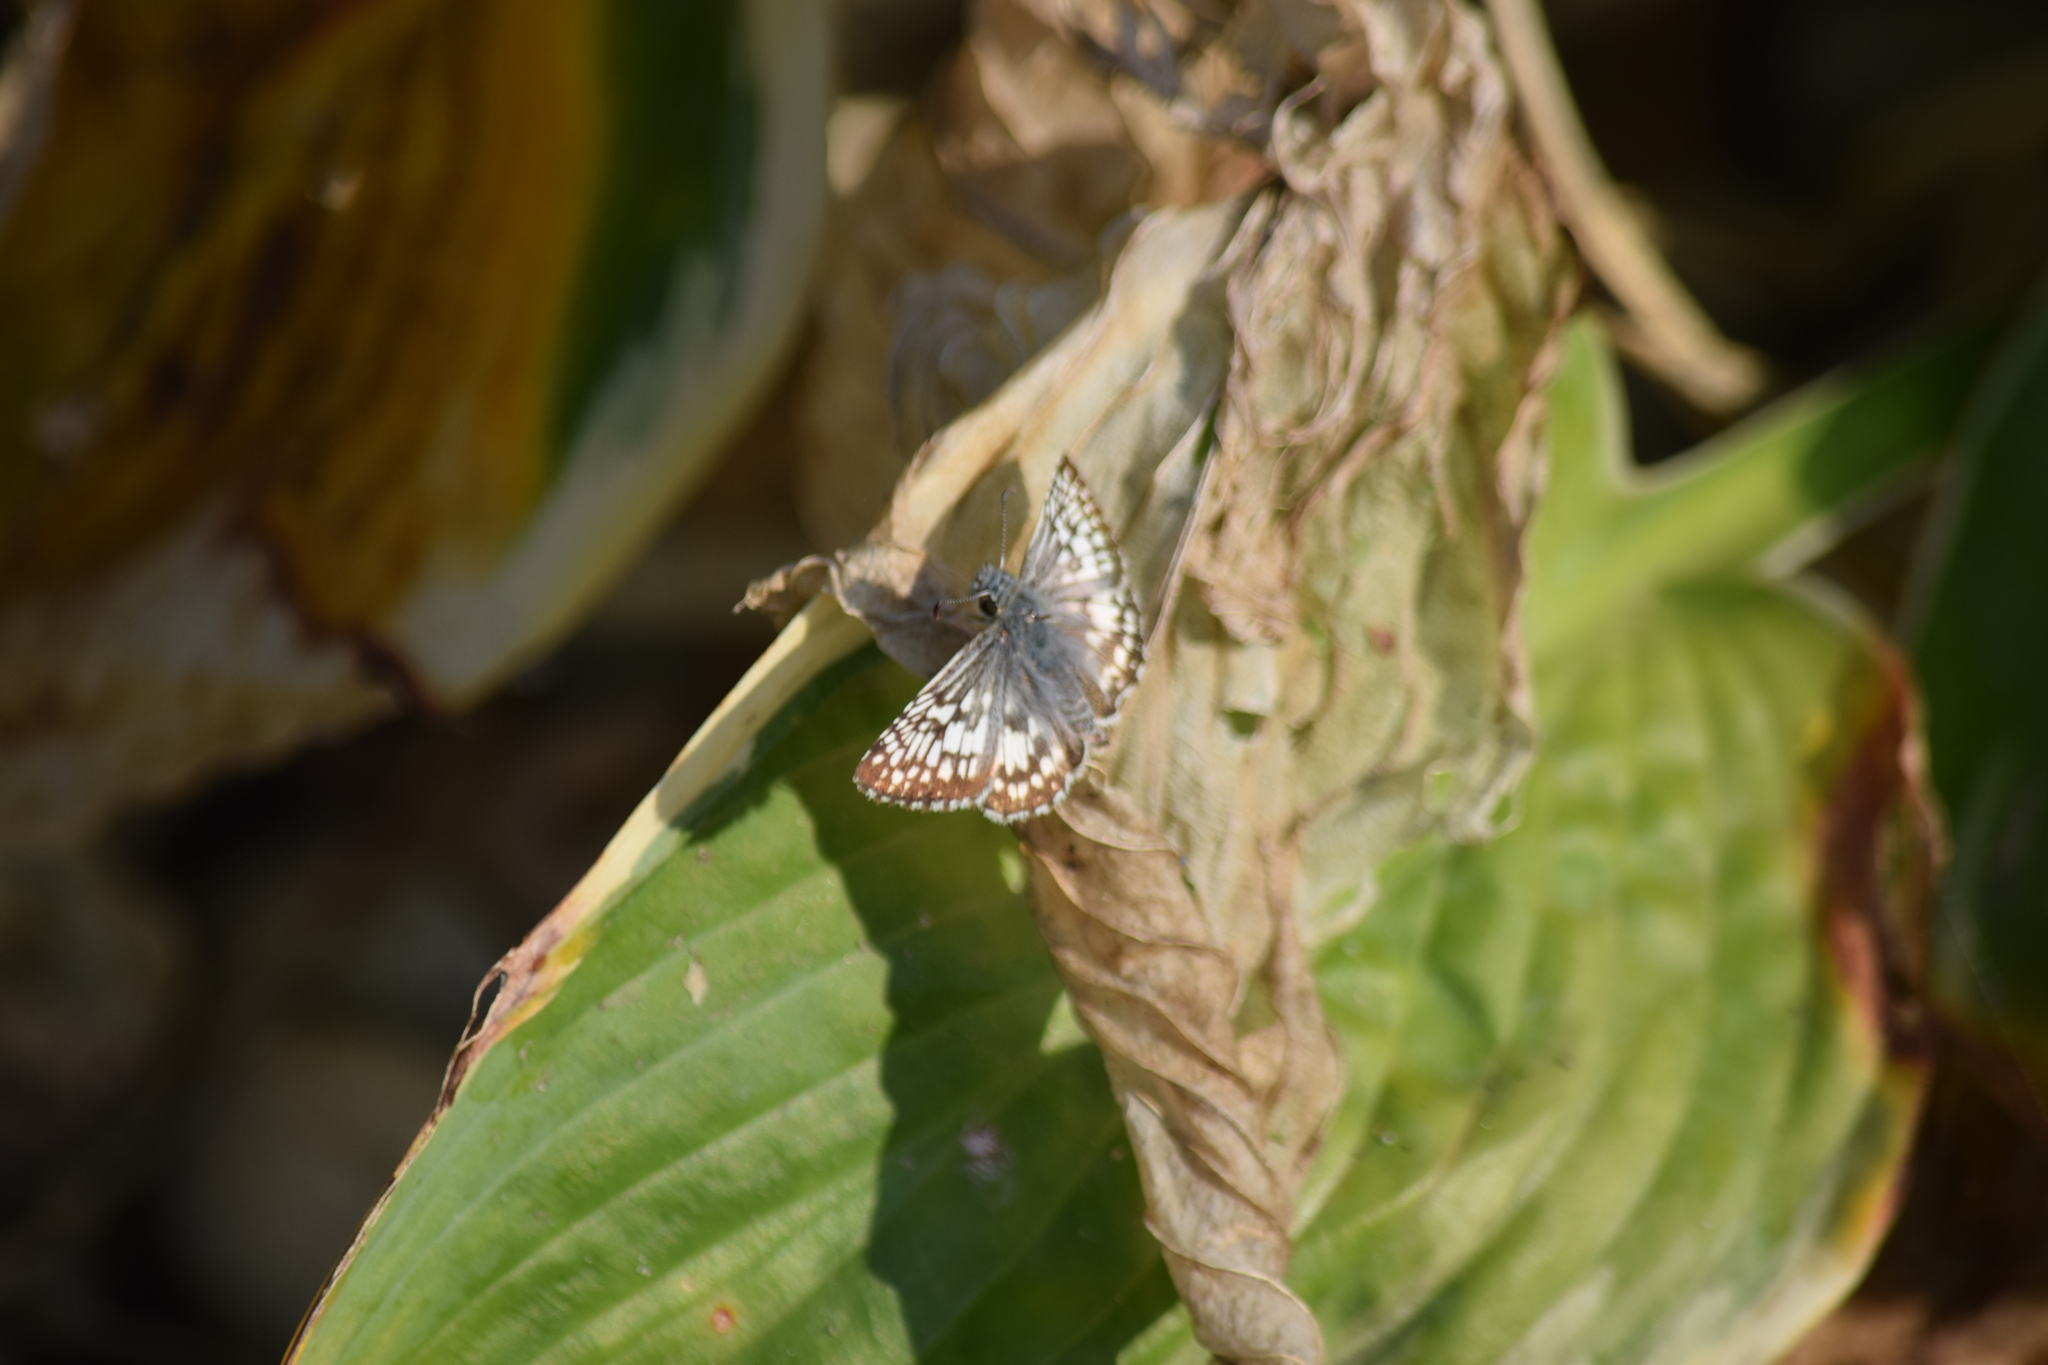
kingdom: Animalia
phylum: Arthropoda
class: Insecta
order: Lepidoptera
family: Hesperiidae
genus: Burnsius
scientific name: Burnsius communis
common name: Common checkered-skipper
